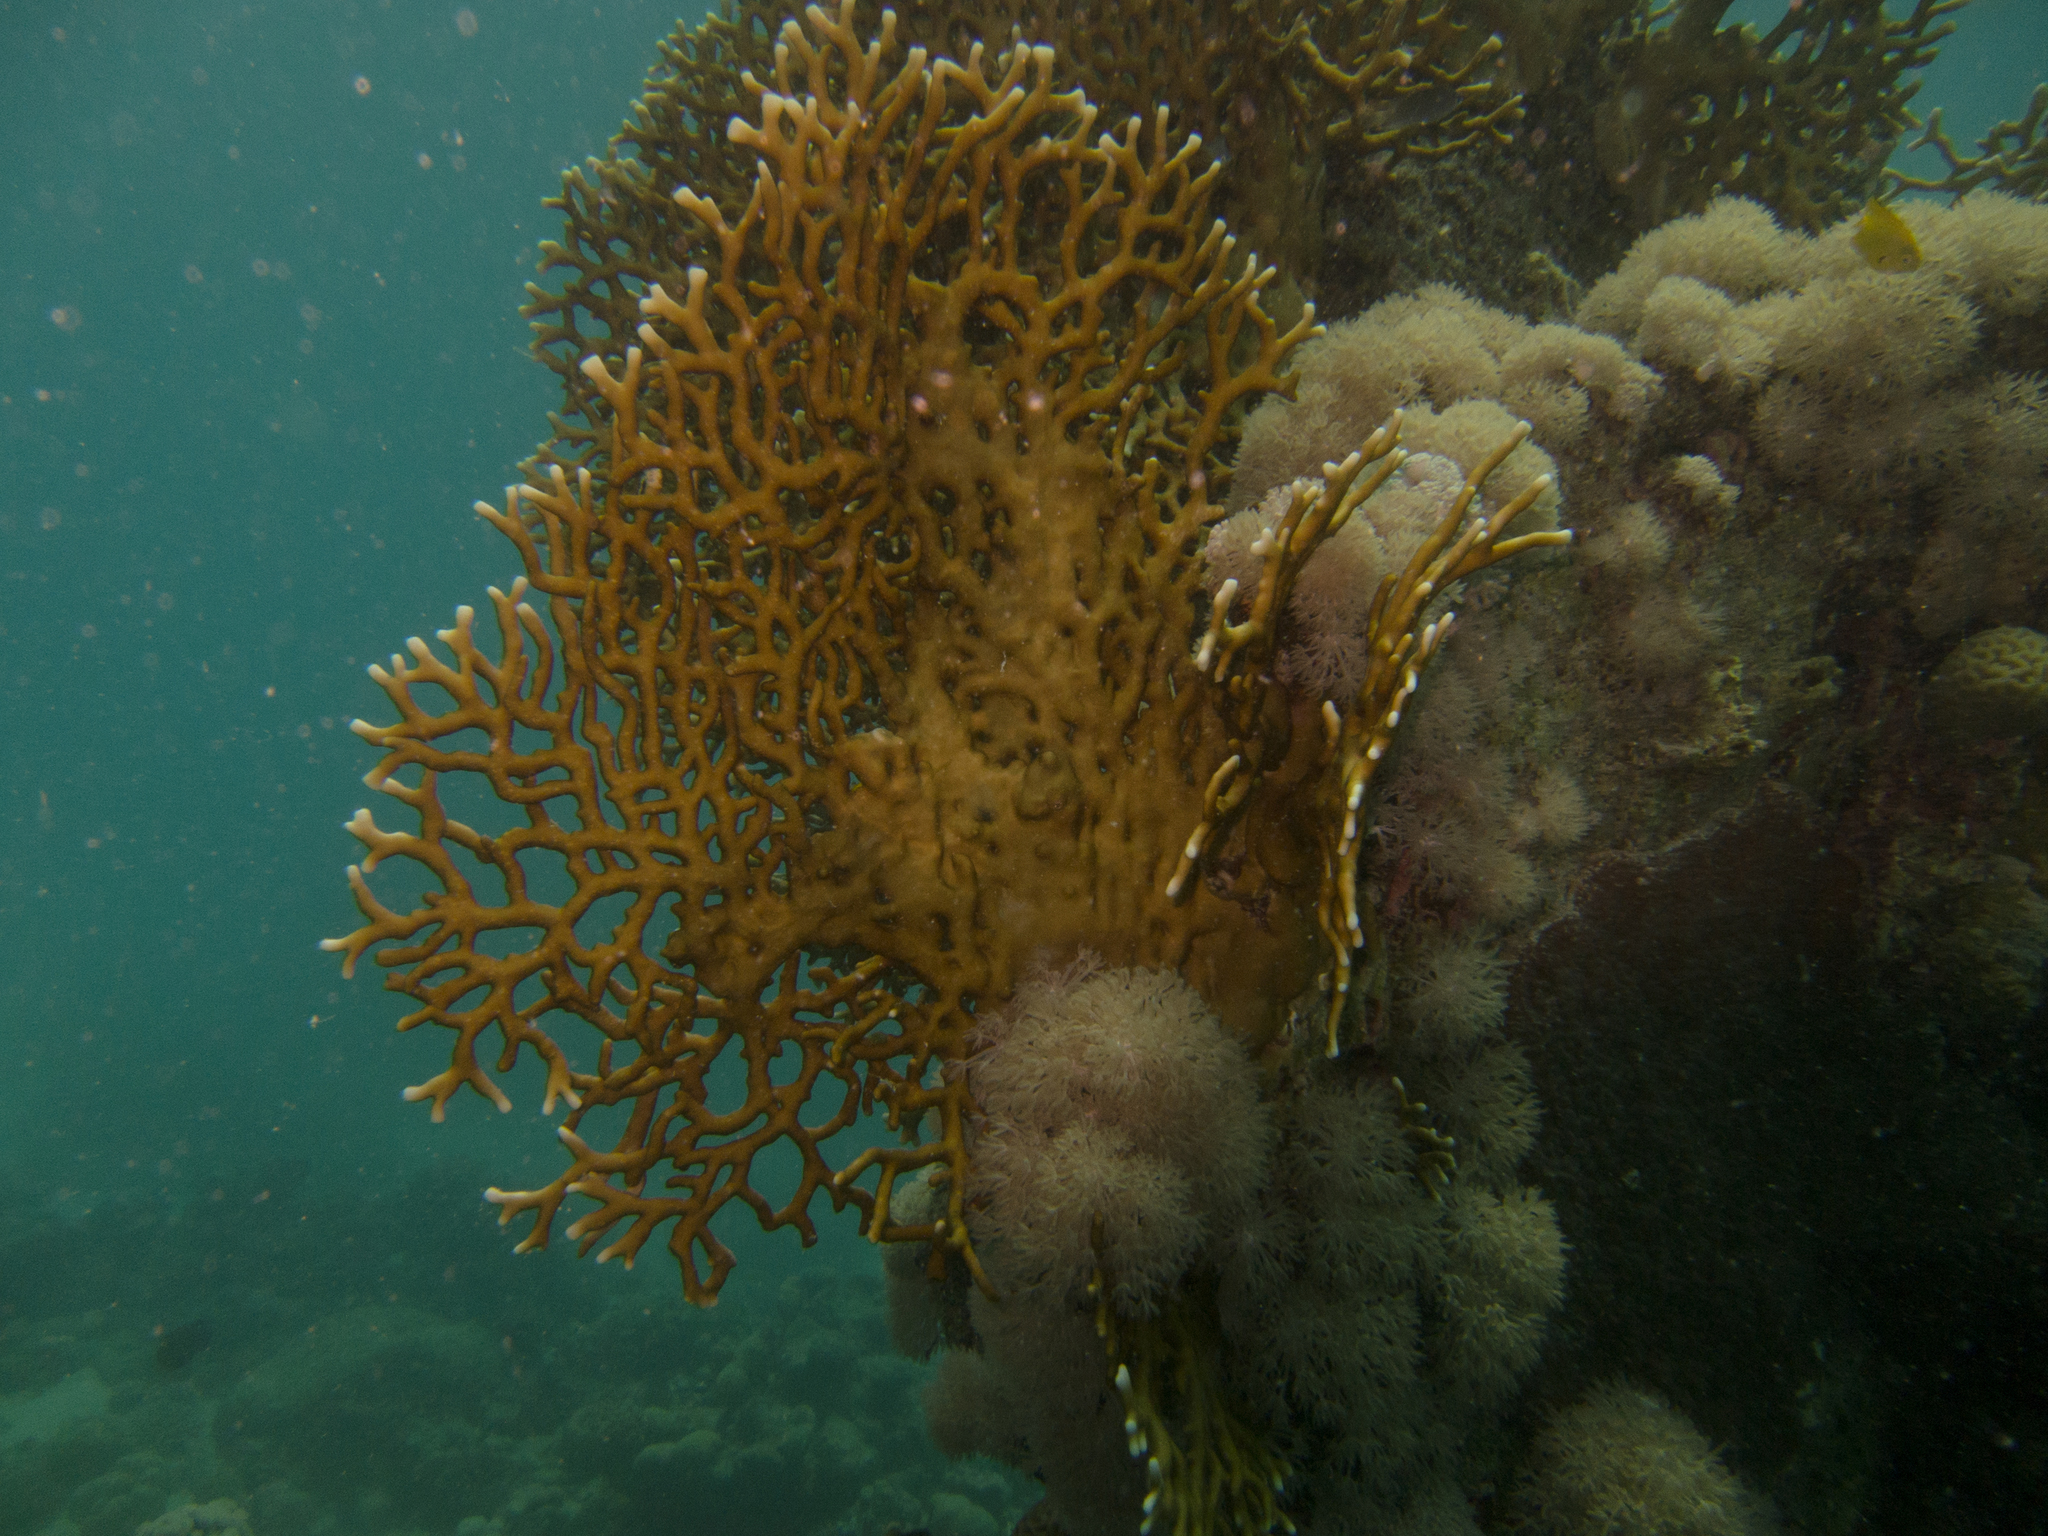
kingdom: Animalia
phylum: Cnidaria
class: Hydrozoa
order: Anthoathecata
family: Milleporidae
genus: Millepora
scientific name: Millepora dichotoma
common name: Ramified fire coral
